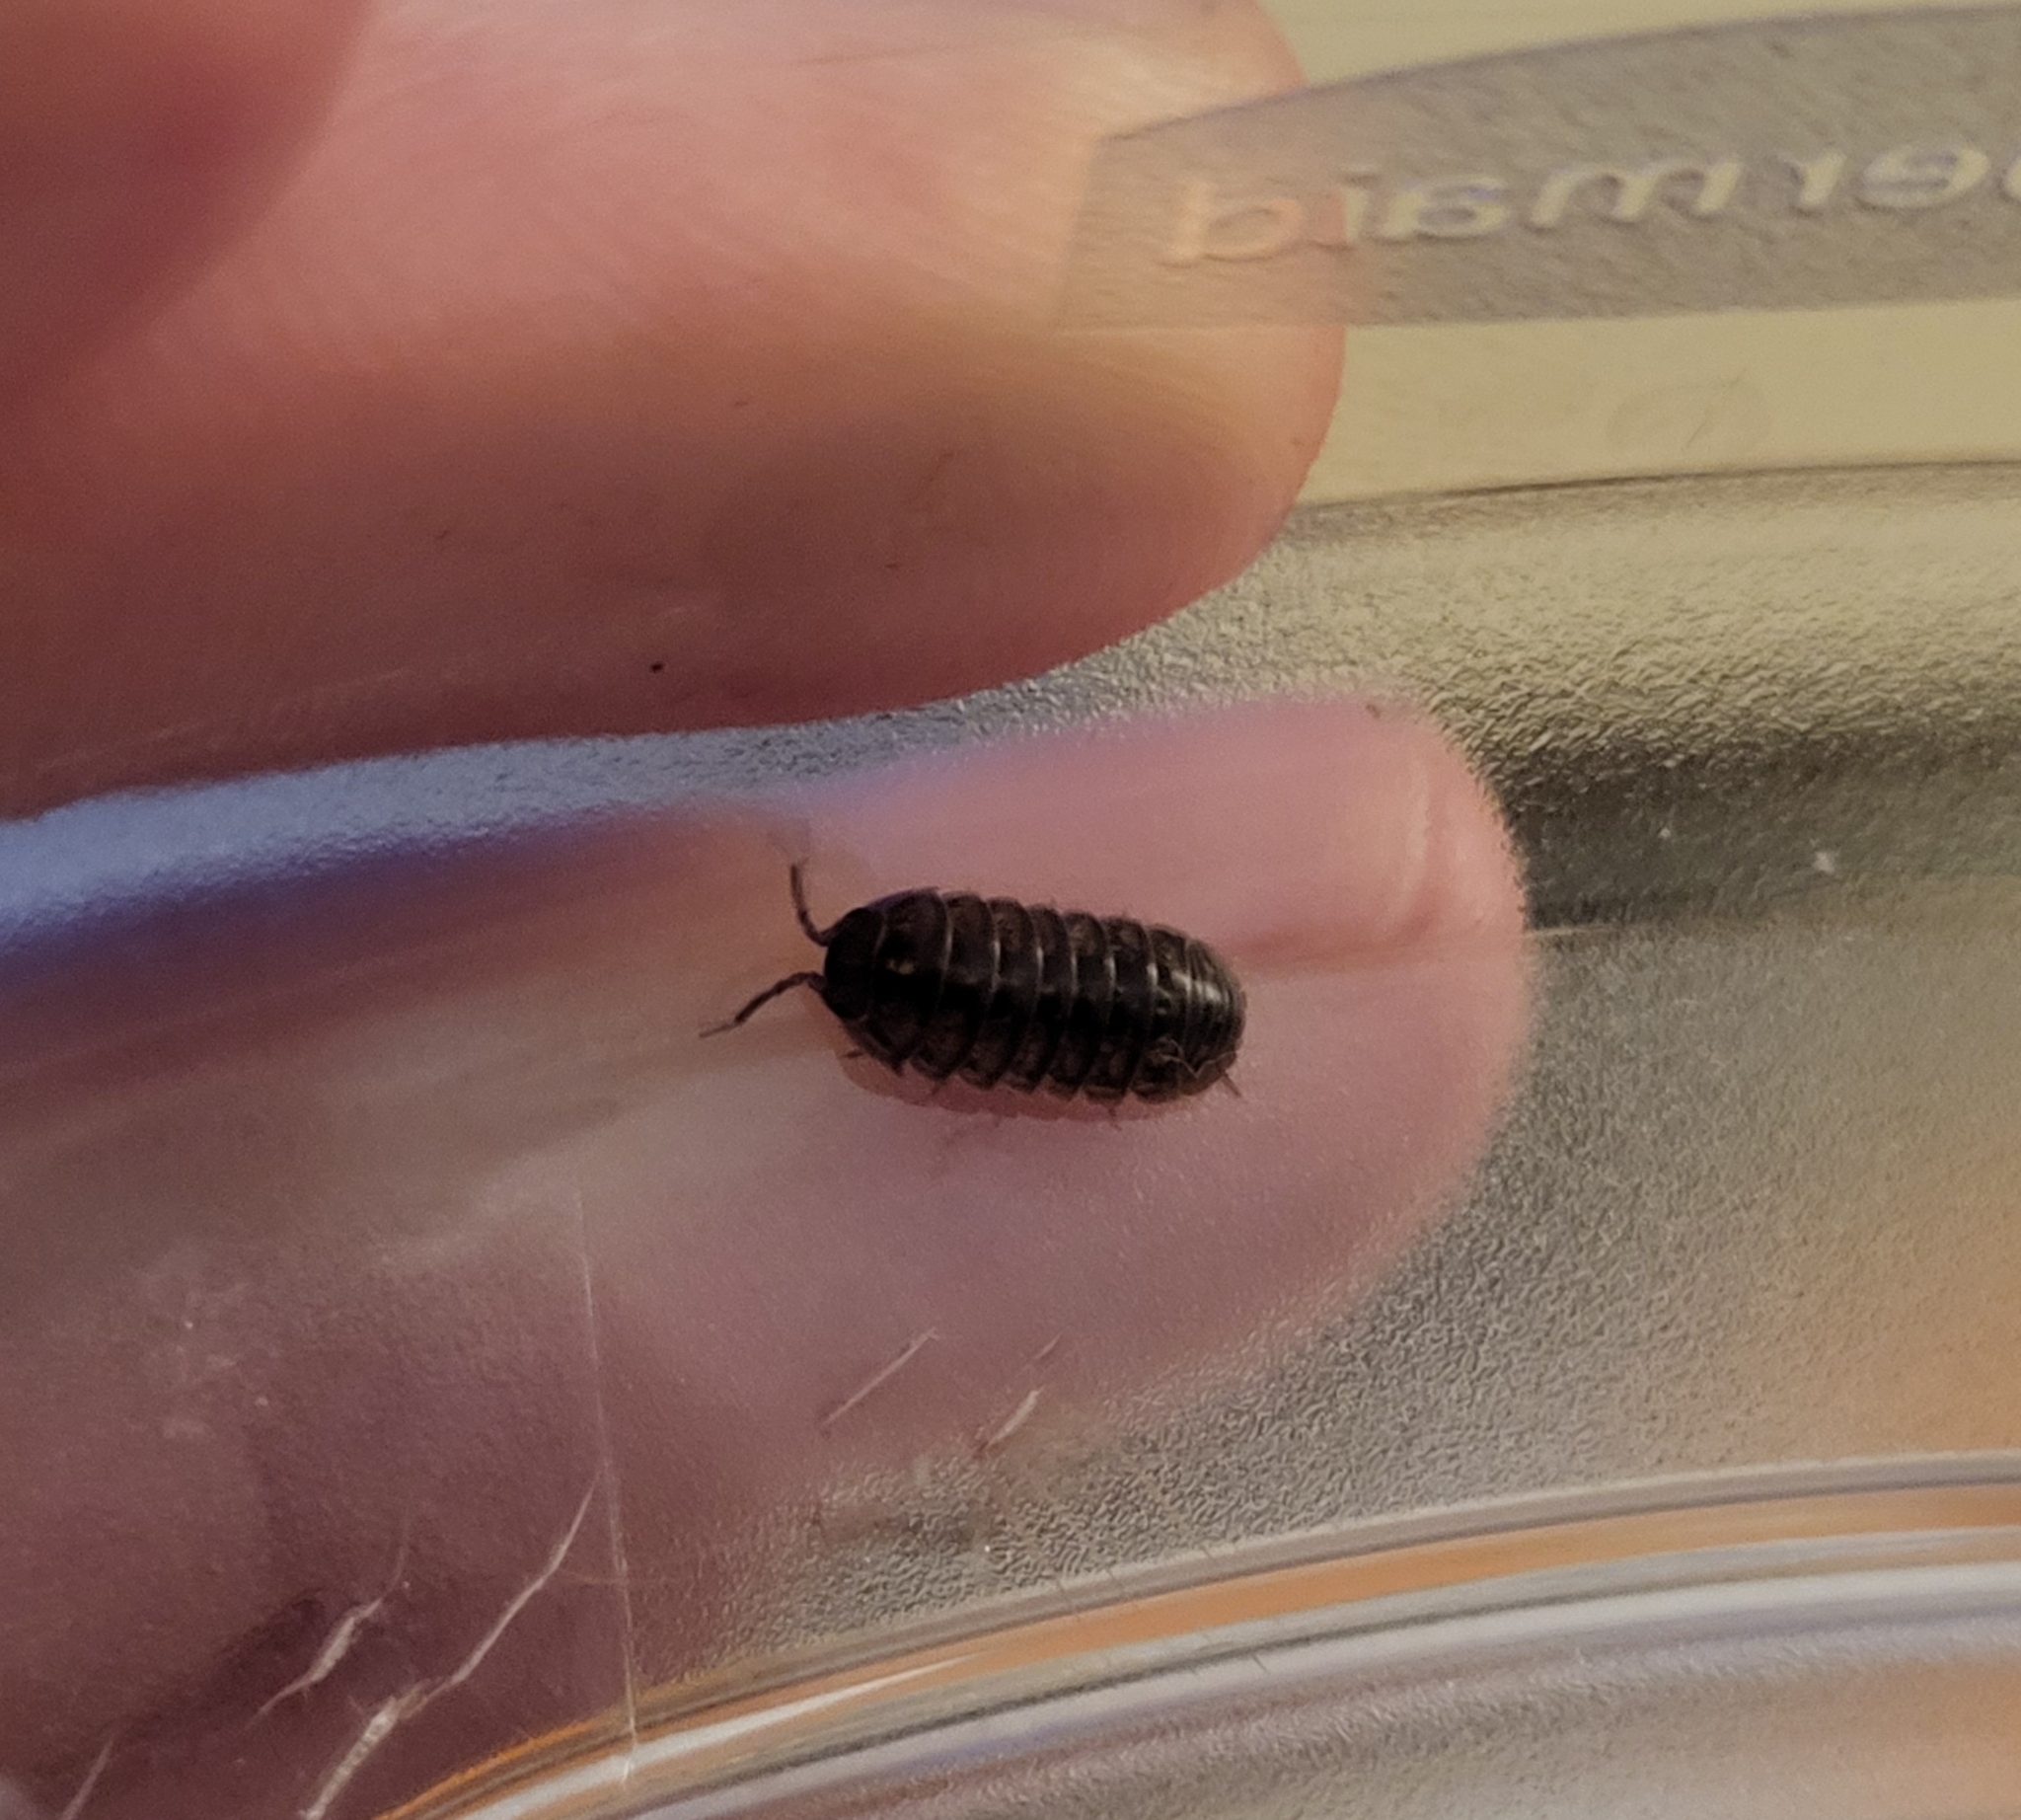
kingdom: Animalia
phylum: Arthropoda
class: Malacostraca
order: Isopoda
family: Armadillidiidae
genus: Armadillidium
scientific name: Armadillidium vulgare
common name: Common pill woodlouse
